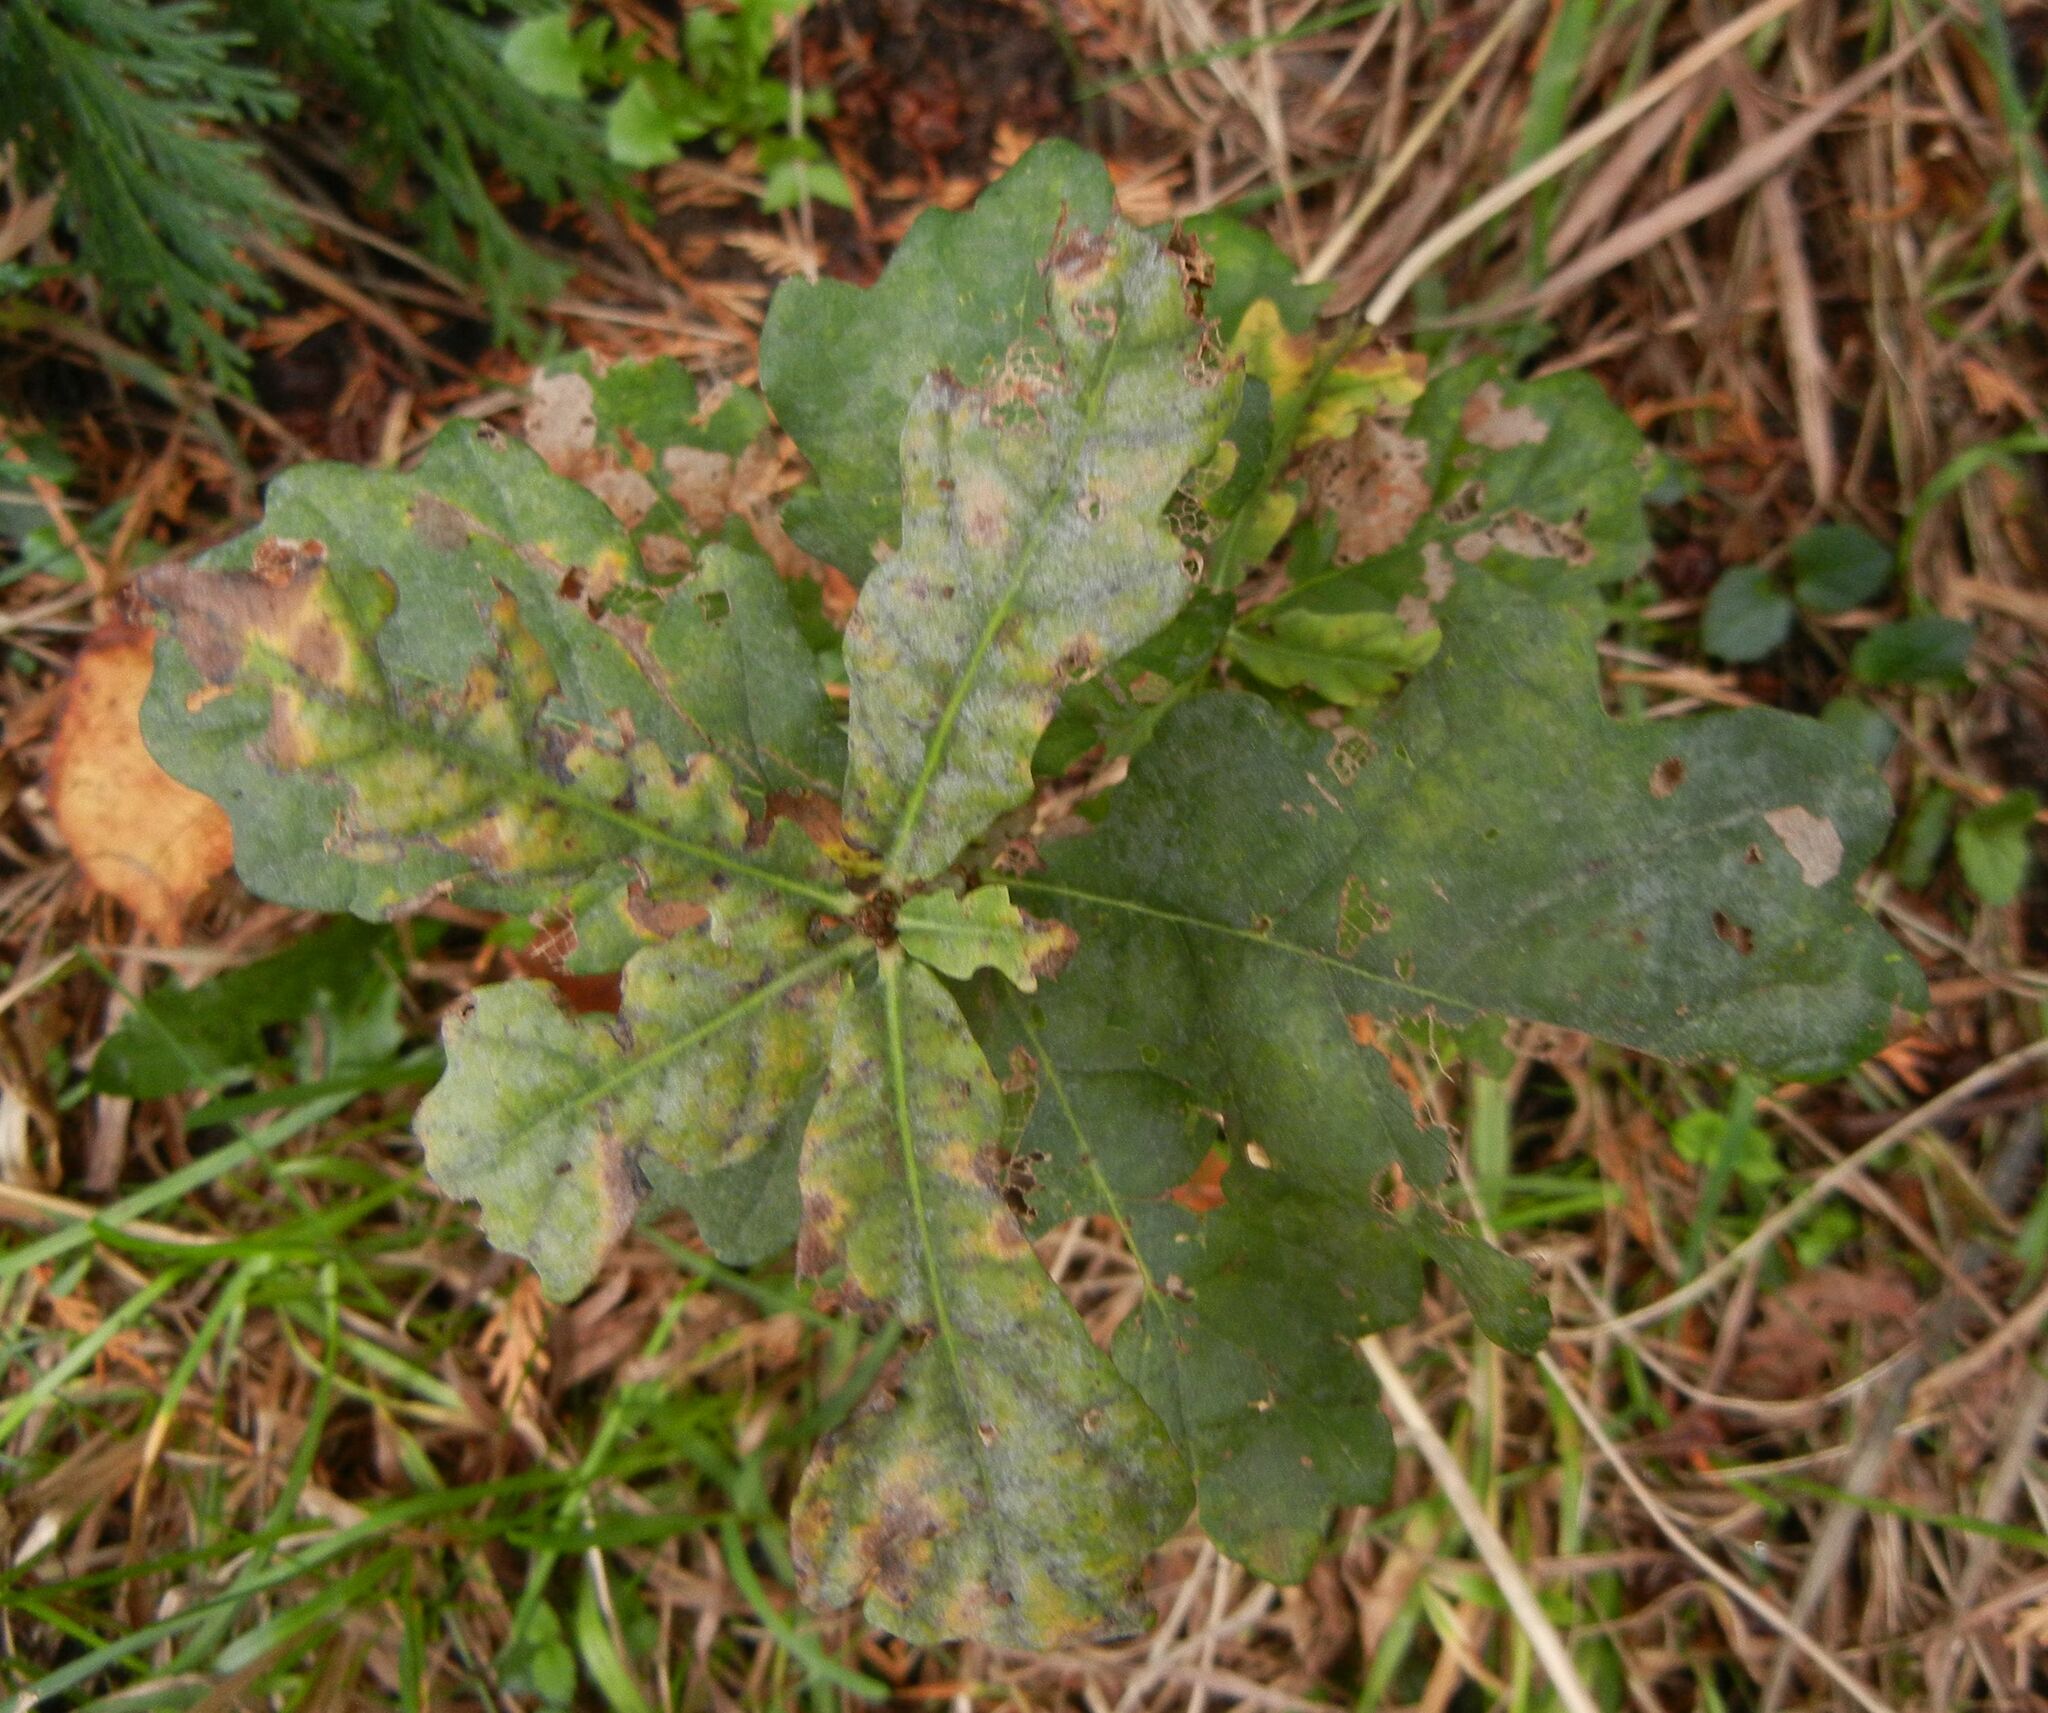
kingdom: Plantae
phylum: Tracheophyta
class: Magnoliopsida
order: Fagales
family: Fagaceae
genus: Quercus
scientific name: Quercus robur
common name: Pedunculate oak
